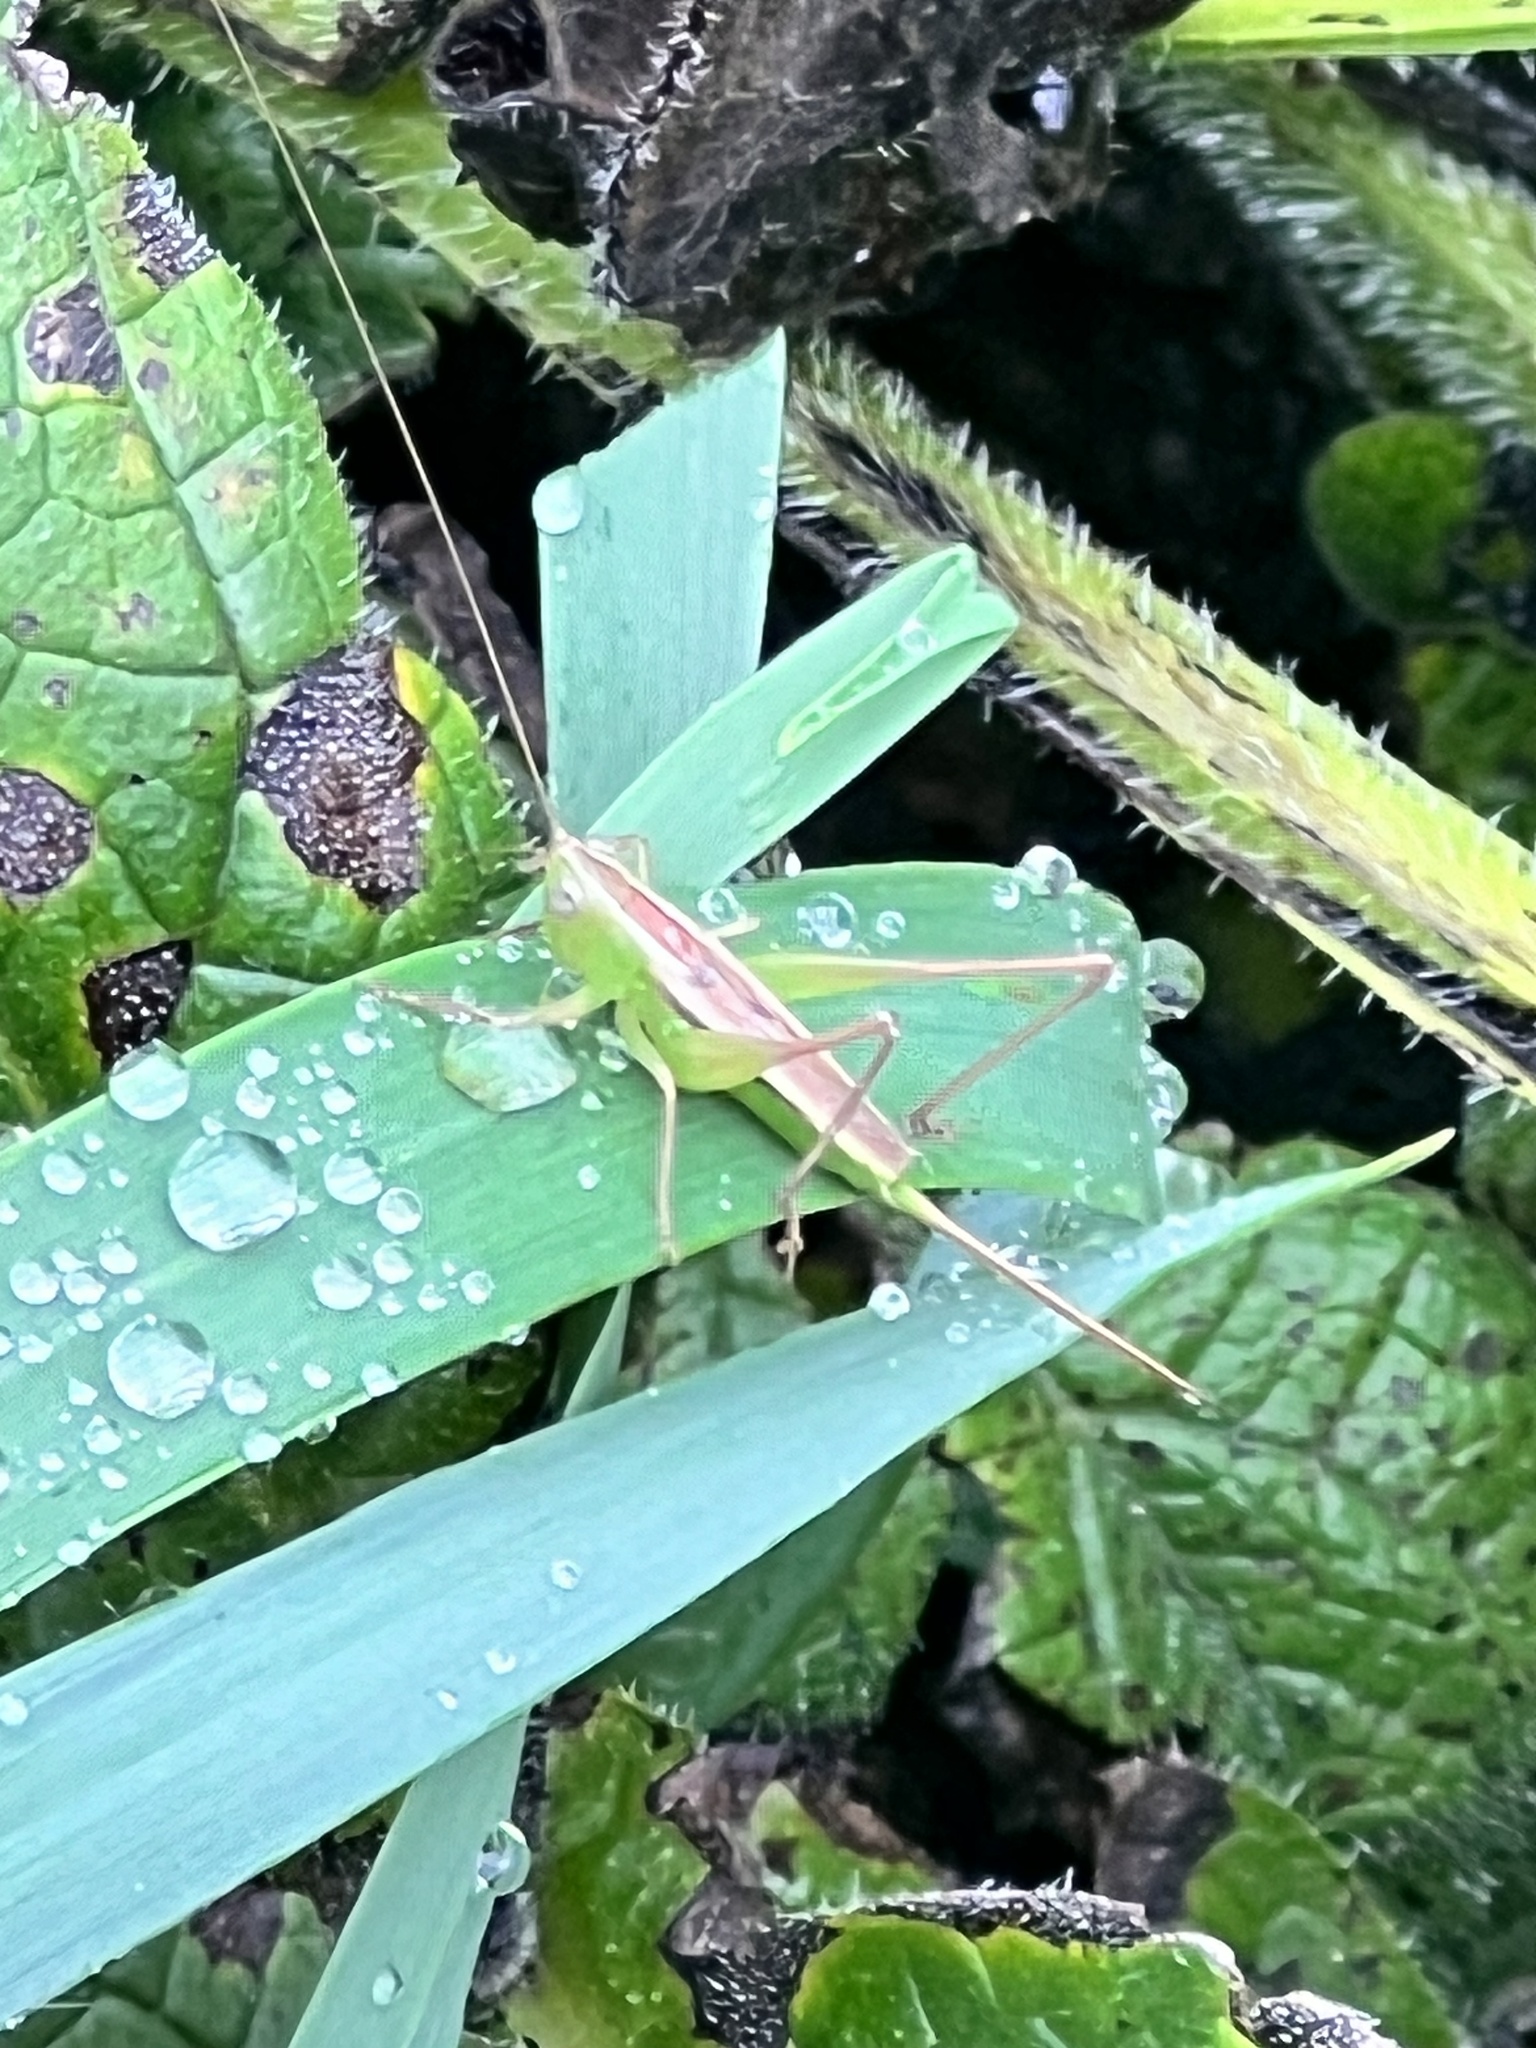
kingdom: Animalia
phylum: Arthropoda
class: Insecta
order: Orthoptera
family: Tettigoniidae
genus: Conocephalus
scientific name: Conocephalus albescens
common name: Whitish meadow katydid
